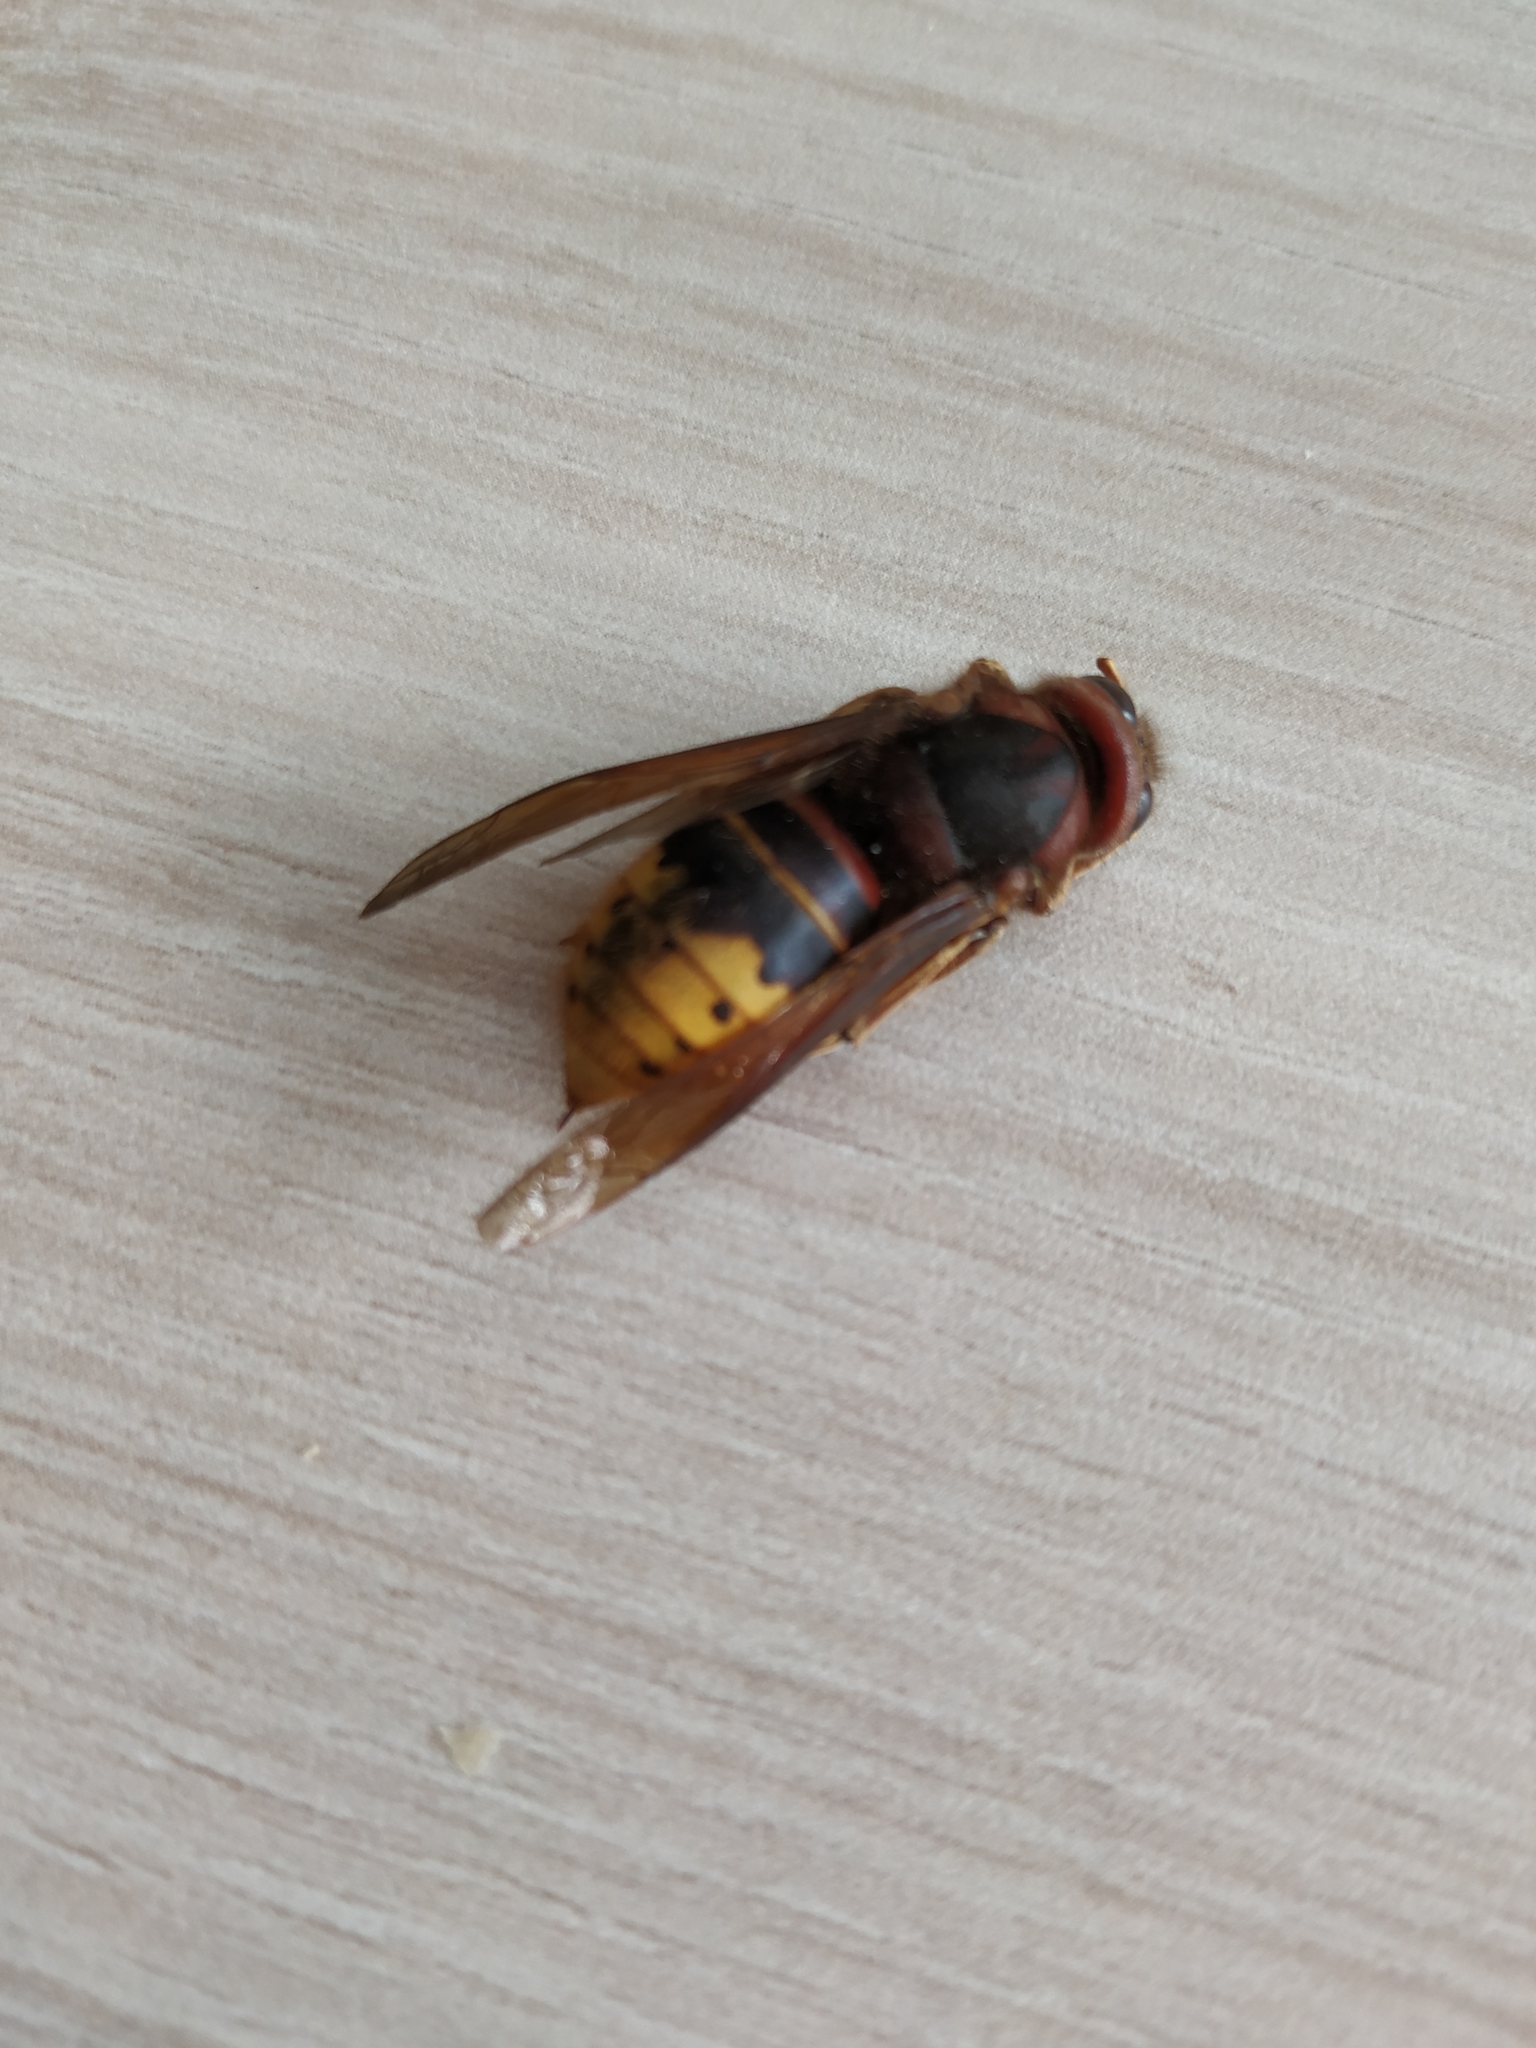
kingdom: Animalia
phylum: Arthropoda
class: Insecta
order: Hymenoptera
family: Vespidae
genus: Vespa
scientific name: Vespa crabro
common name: Hornet
